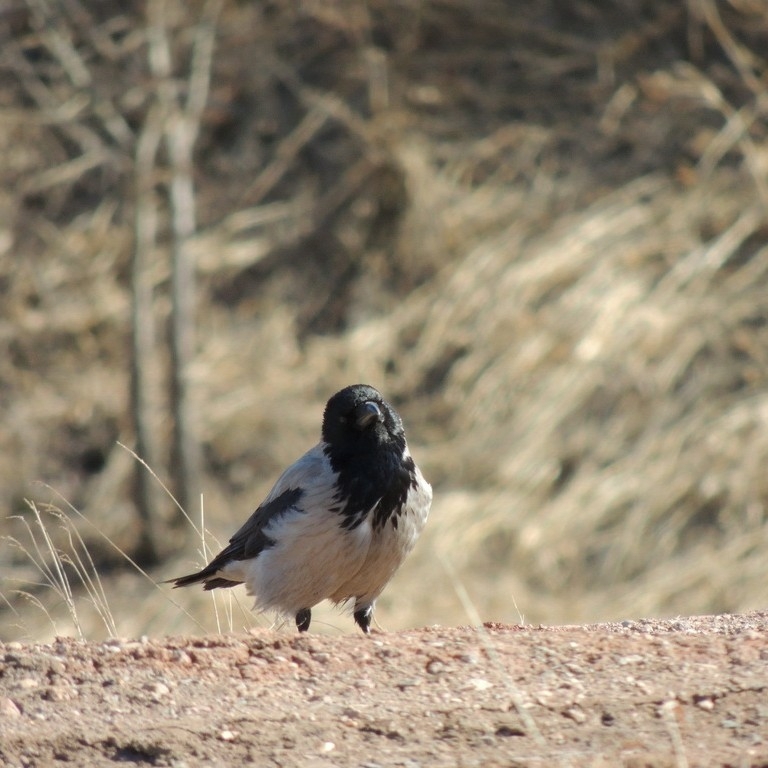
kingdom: Animalia
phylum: Chordata
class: Aves
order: Passeriformes
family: Corvidae
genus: Corvus
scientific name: Corvus cornix
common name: Hooded crow
